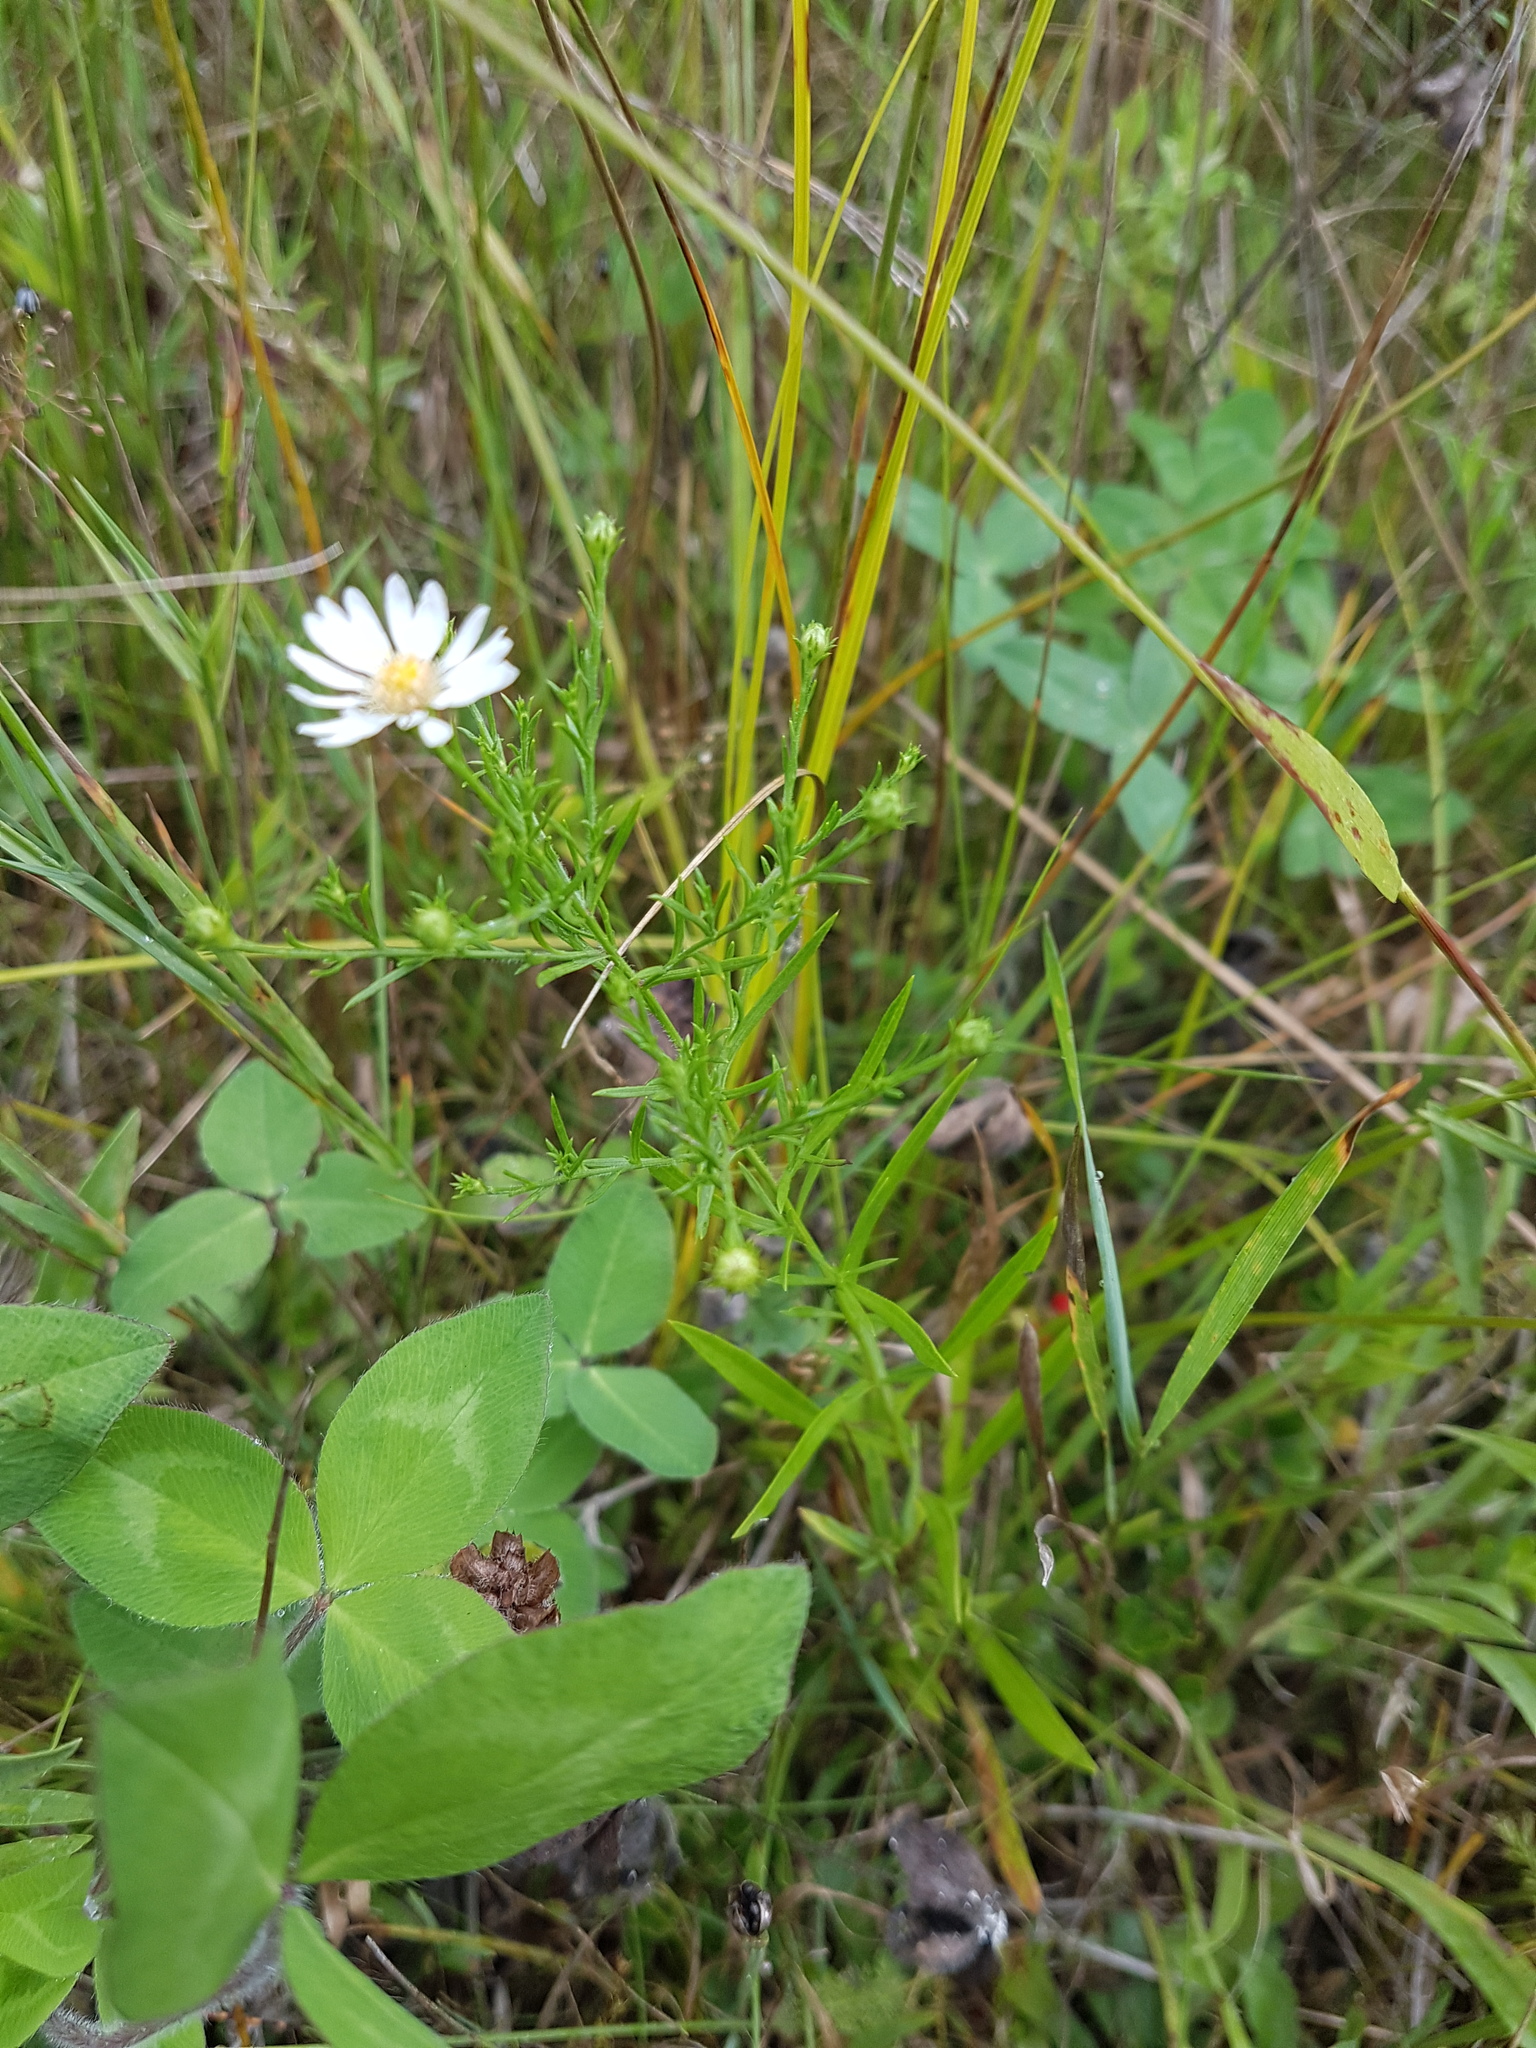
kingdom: Plantae
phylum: Tracheophyta
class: Magnoliopsida
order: Asterales
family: Asteraceae
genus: Symphyotrichum
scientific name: Symphyotrichum dumosum
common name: Bushy aster
